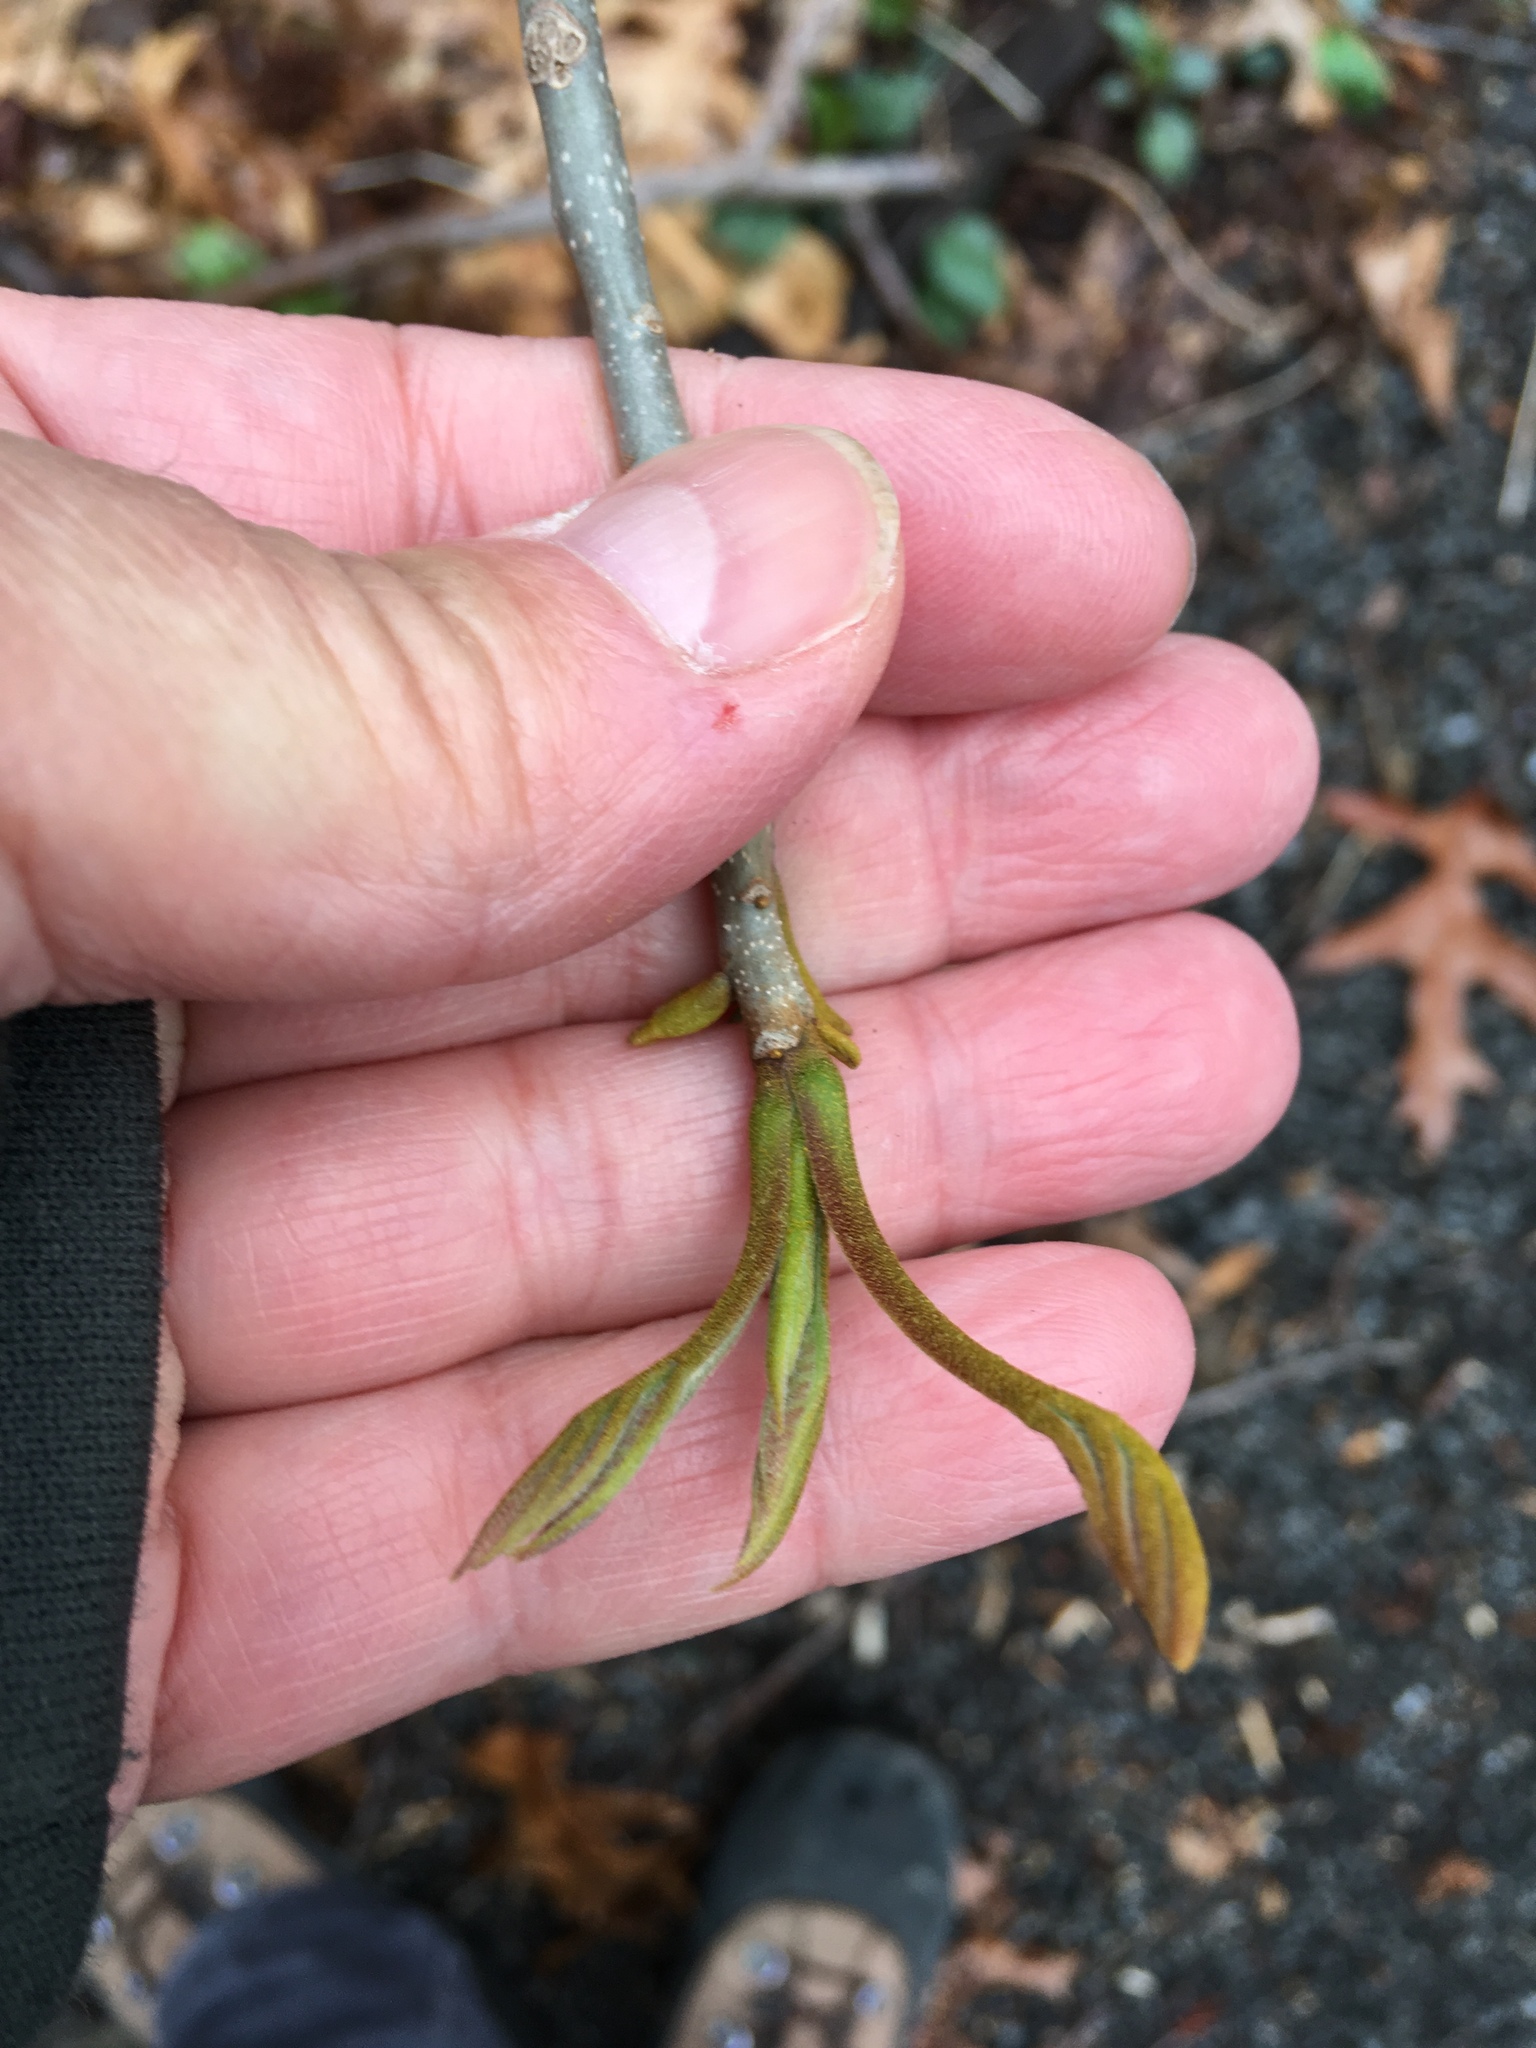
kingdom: Plantae
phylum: Tracheophyta
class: Magnoliopsida
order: Fagales
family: Juglandaceae
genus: Carya
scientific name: Carya cordiformis
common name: Bitternut hickory
